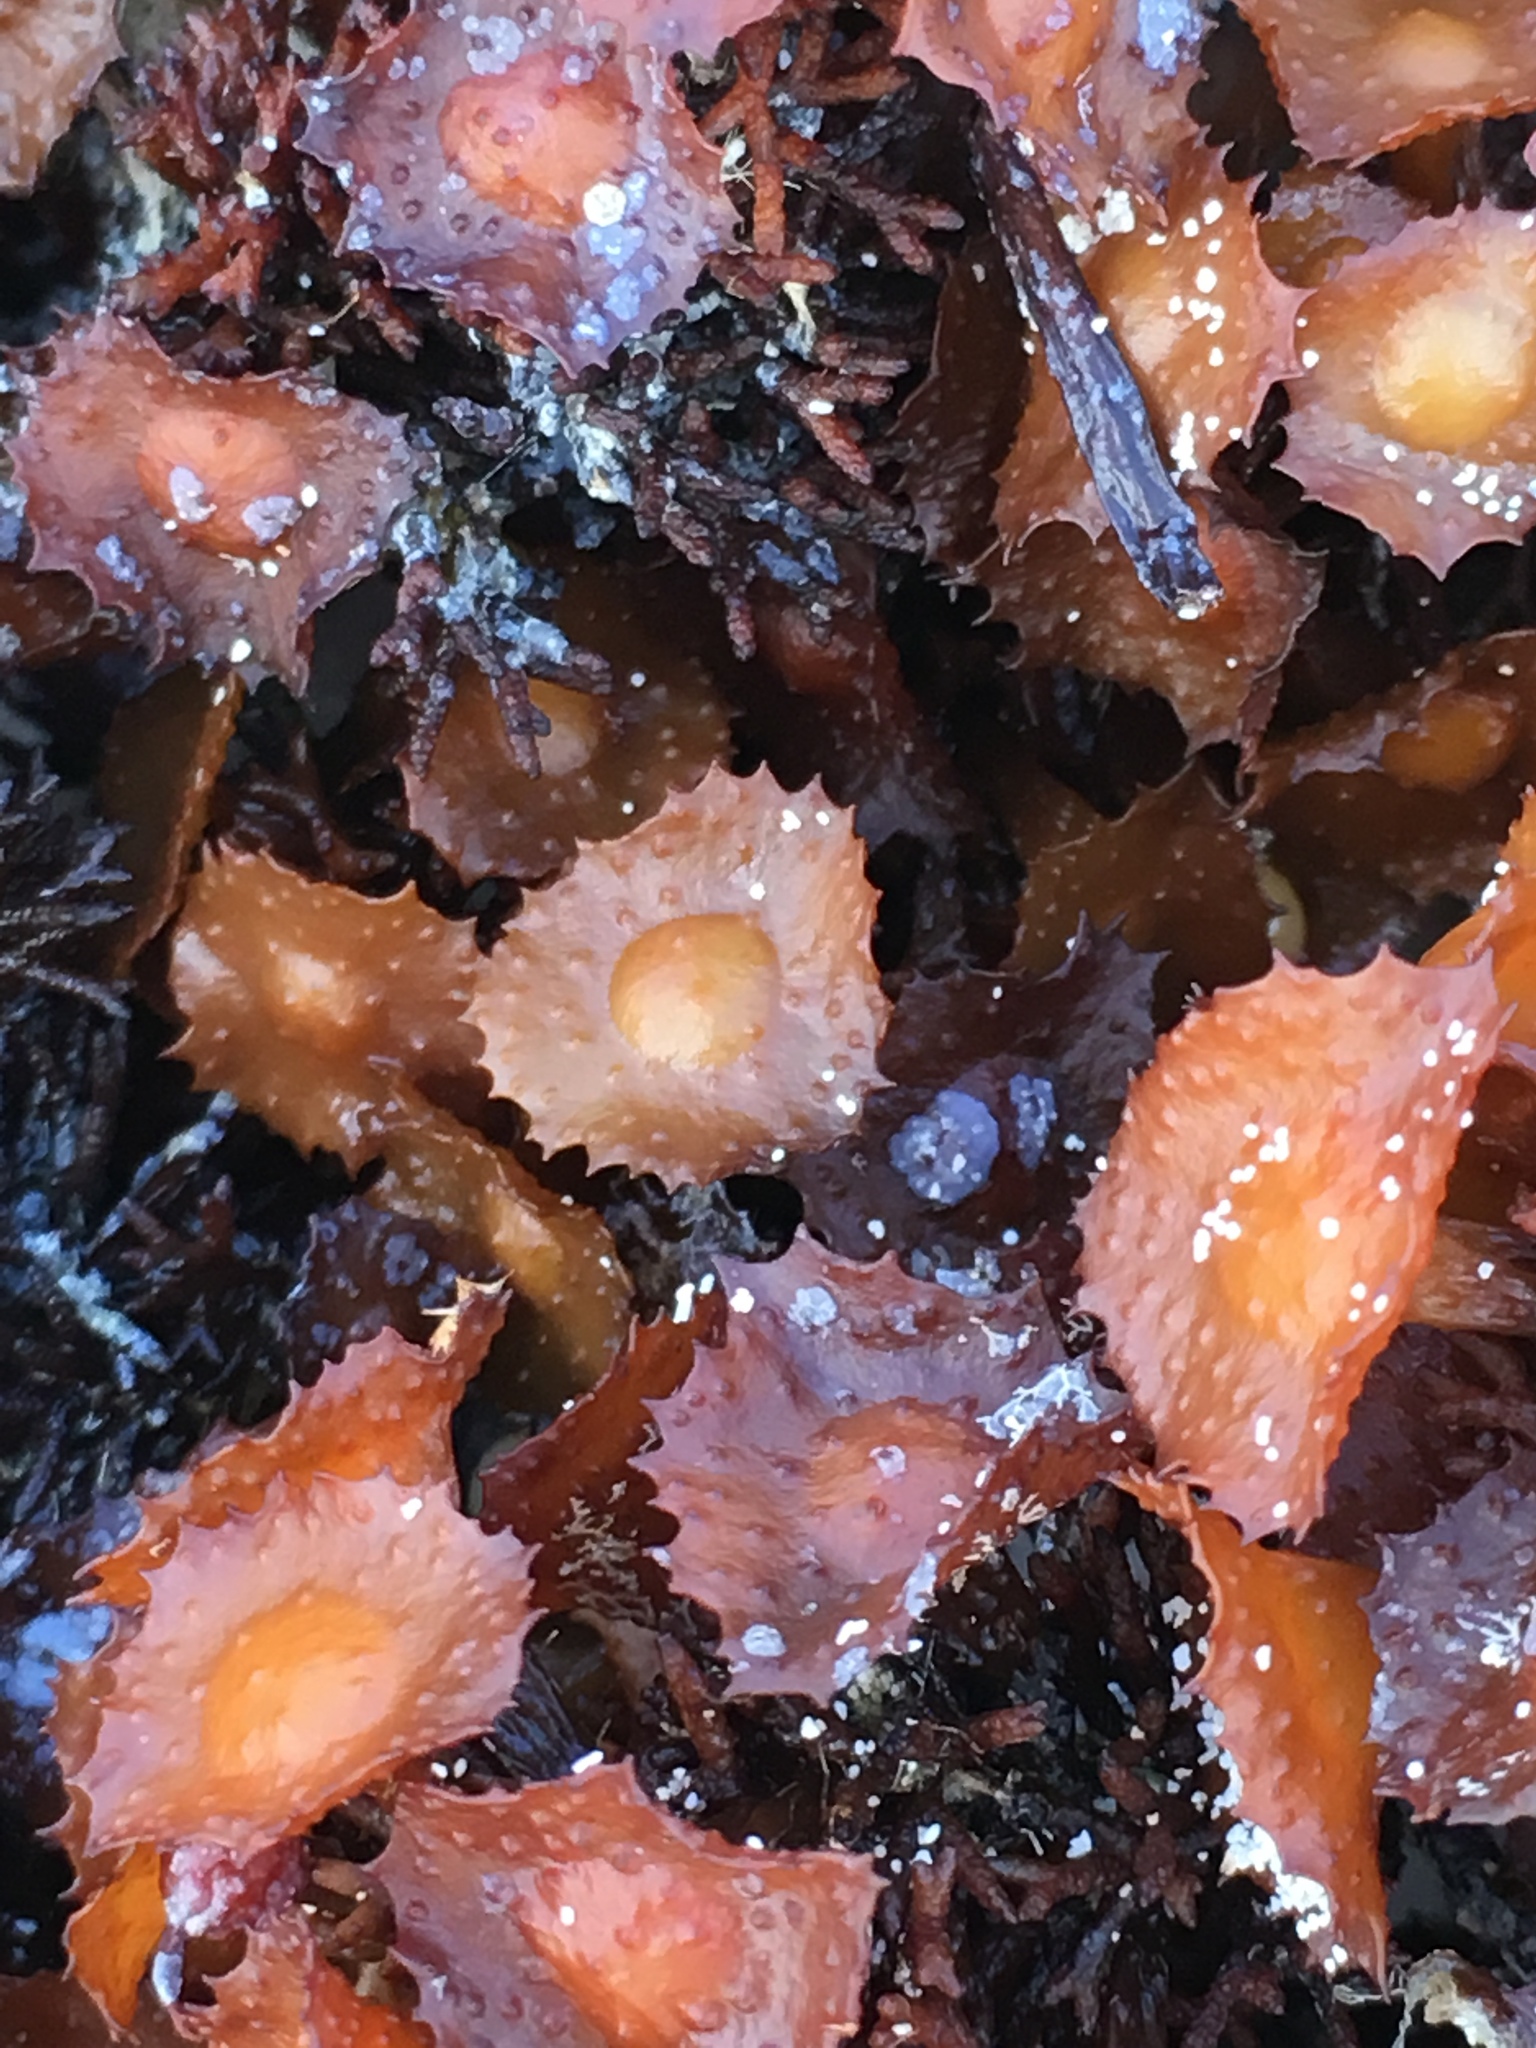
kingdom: Chromista
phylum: Ochrophyta
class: Phaeophyceae
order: Fucales
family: Sargassaceae
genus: Turbinaria
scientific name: Turbinaria turbinata
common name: Blistered saucer leaf algae
